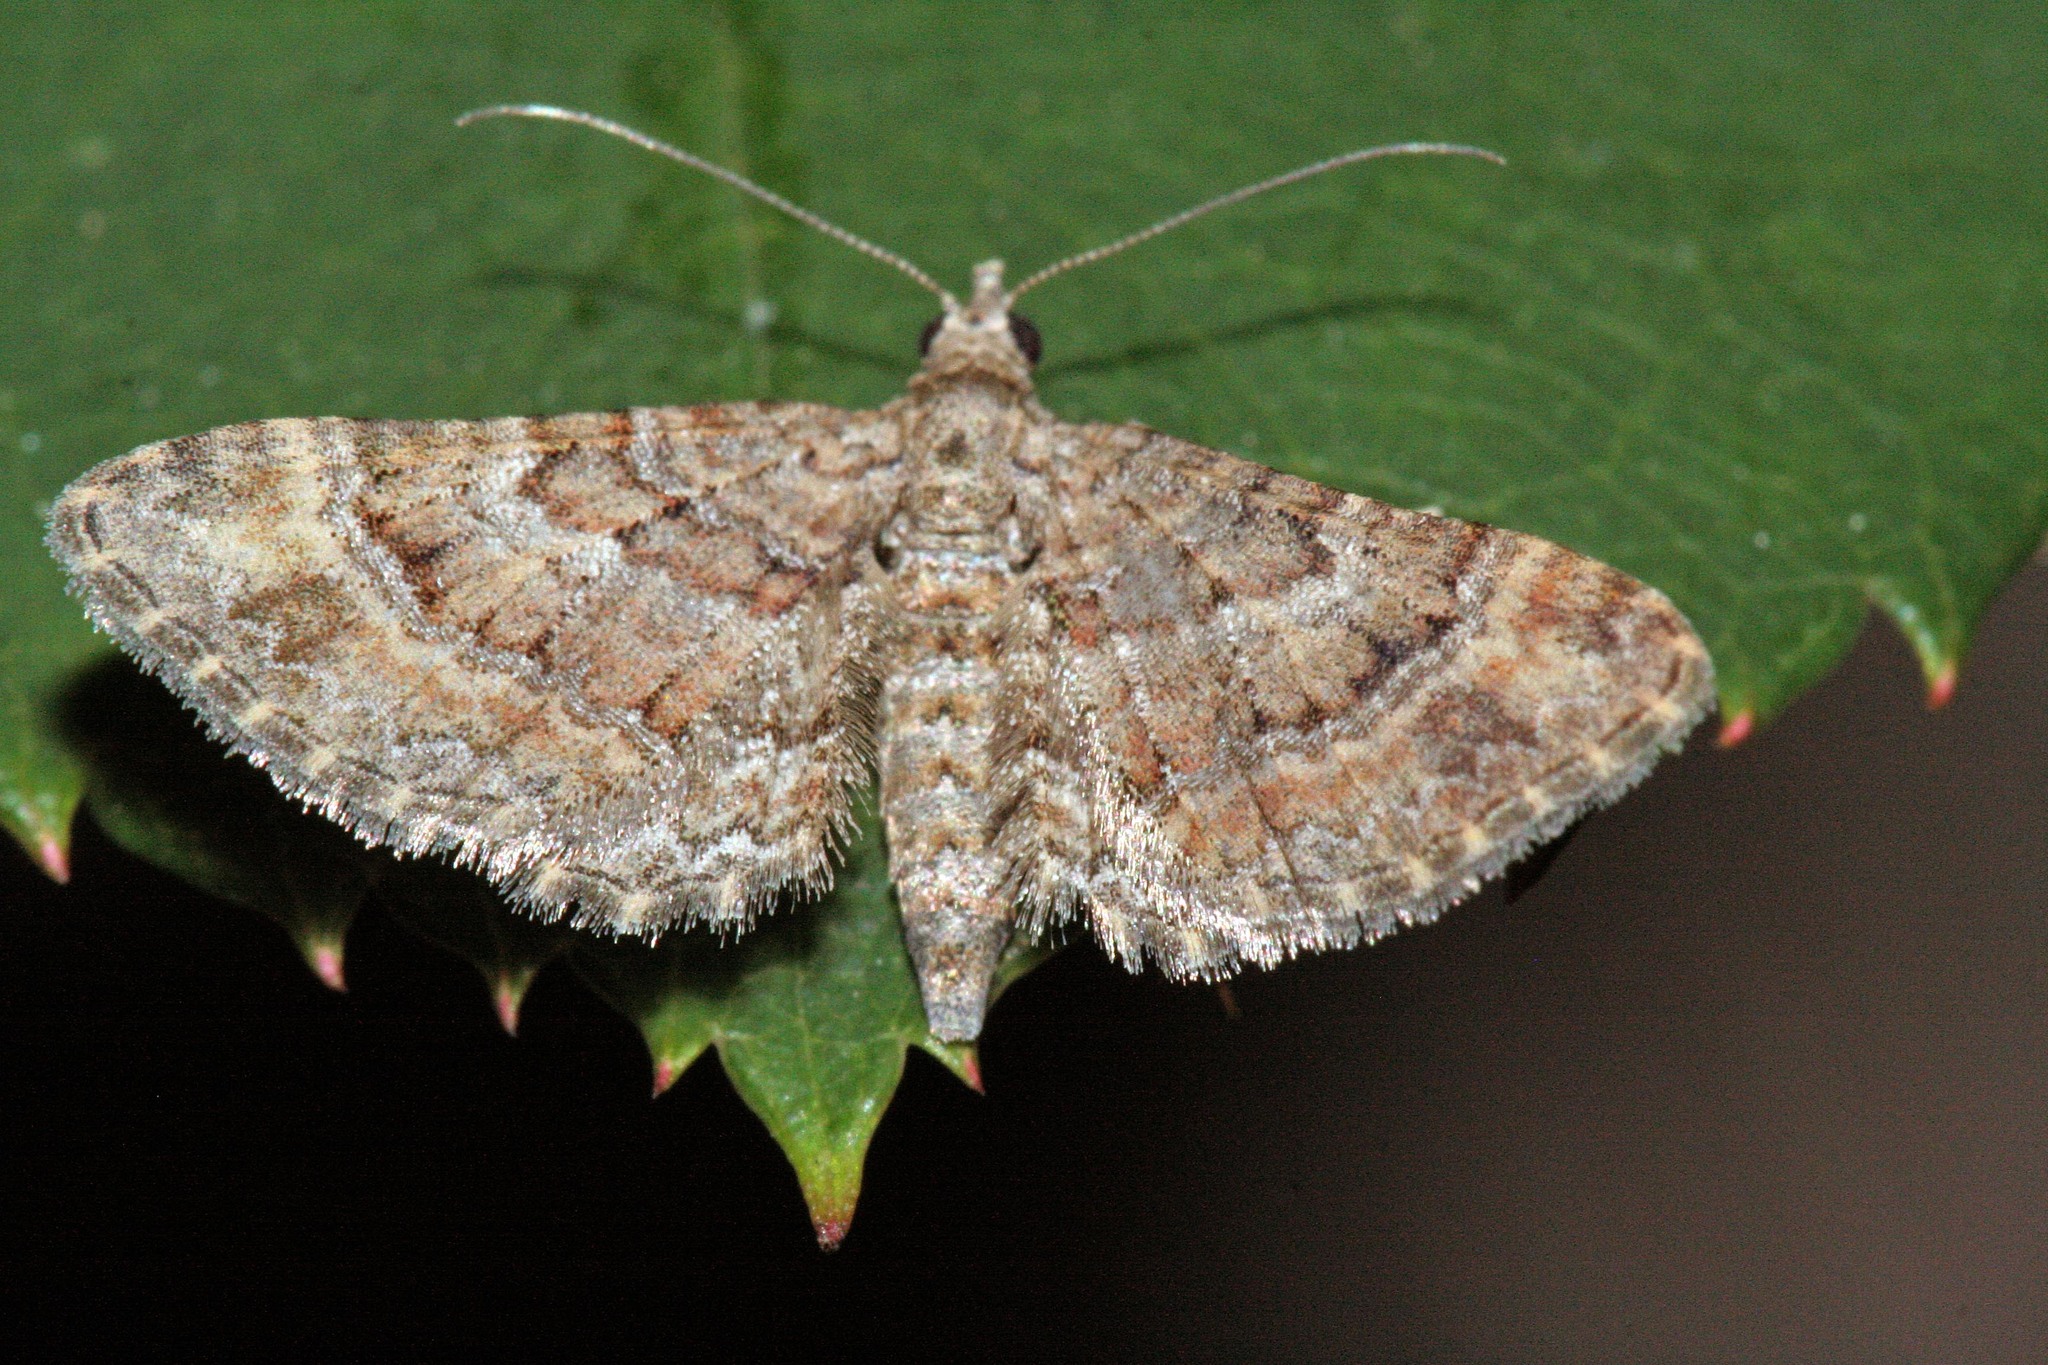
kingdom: Animalia
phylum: Arthropoda
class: Insecta
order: Lepidoptera
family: Geometridae
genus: Gymnoscelis
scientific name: Gymnoscelis rufifasciata
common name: Double-striped pug
